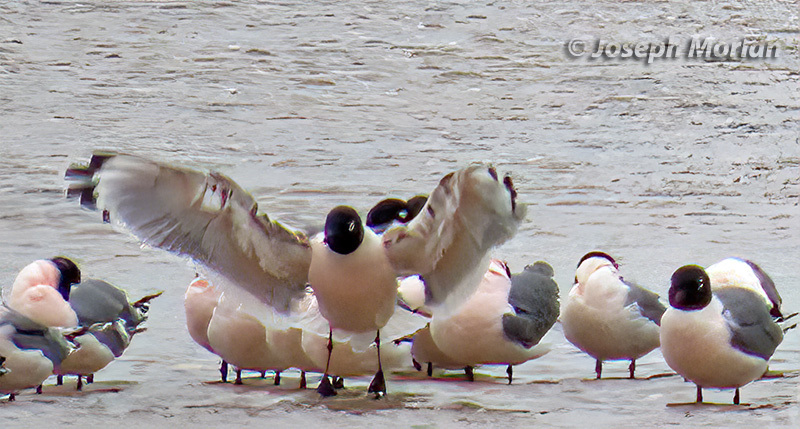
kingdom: Animalia
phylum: Chordata
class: Aves
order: Charadriiformes
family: Laridae
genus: Leucophaeus
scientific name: Leucophaeus pipixcan
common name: Franklin's gull
